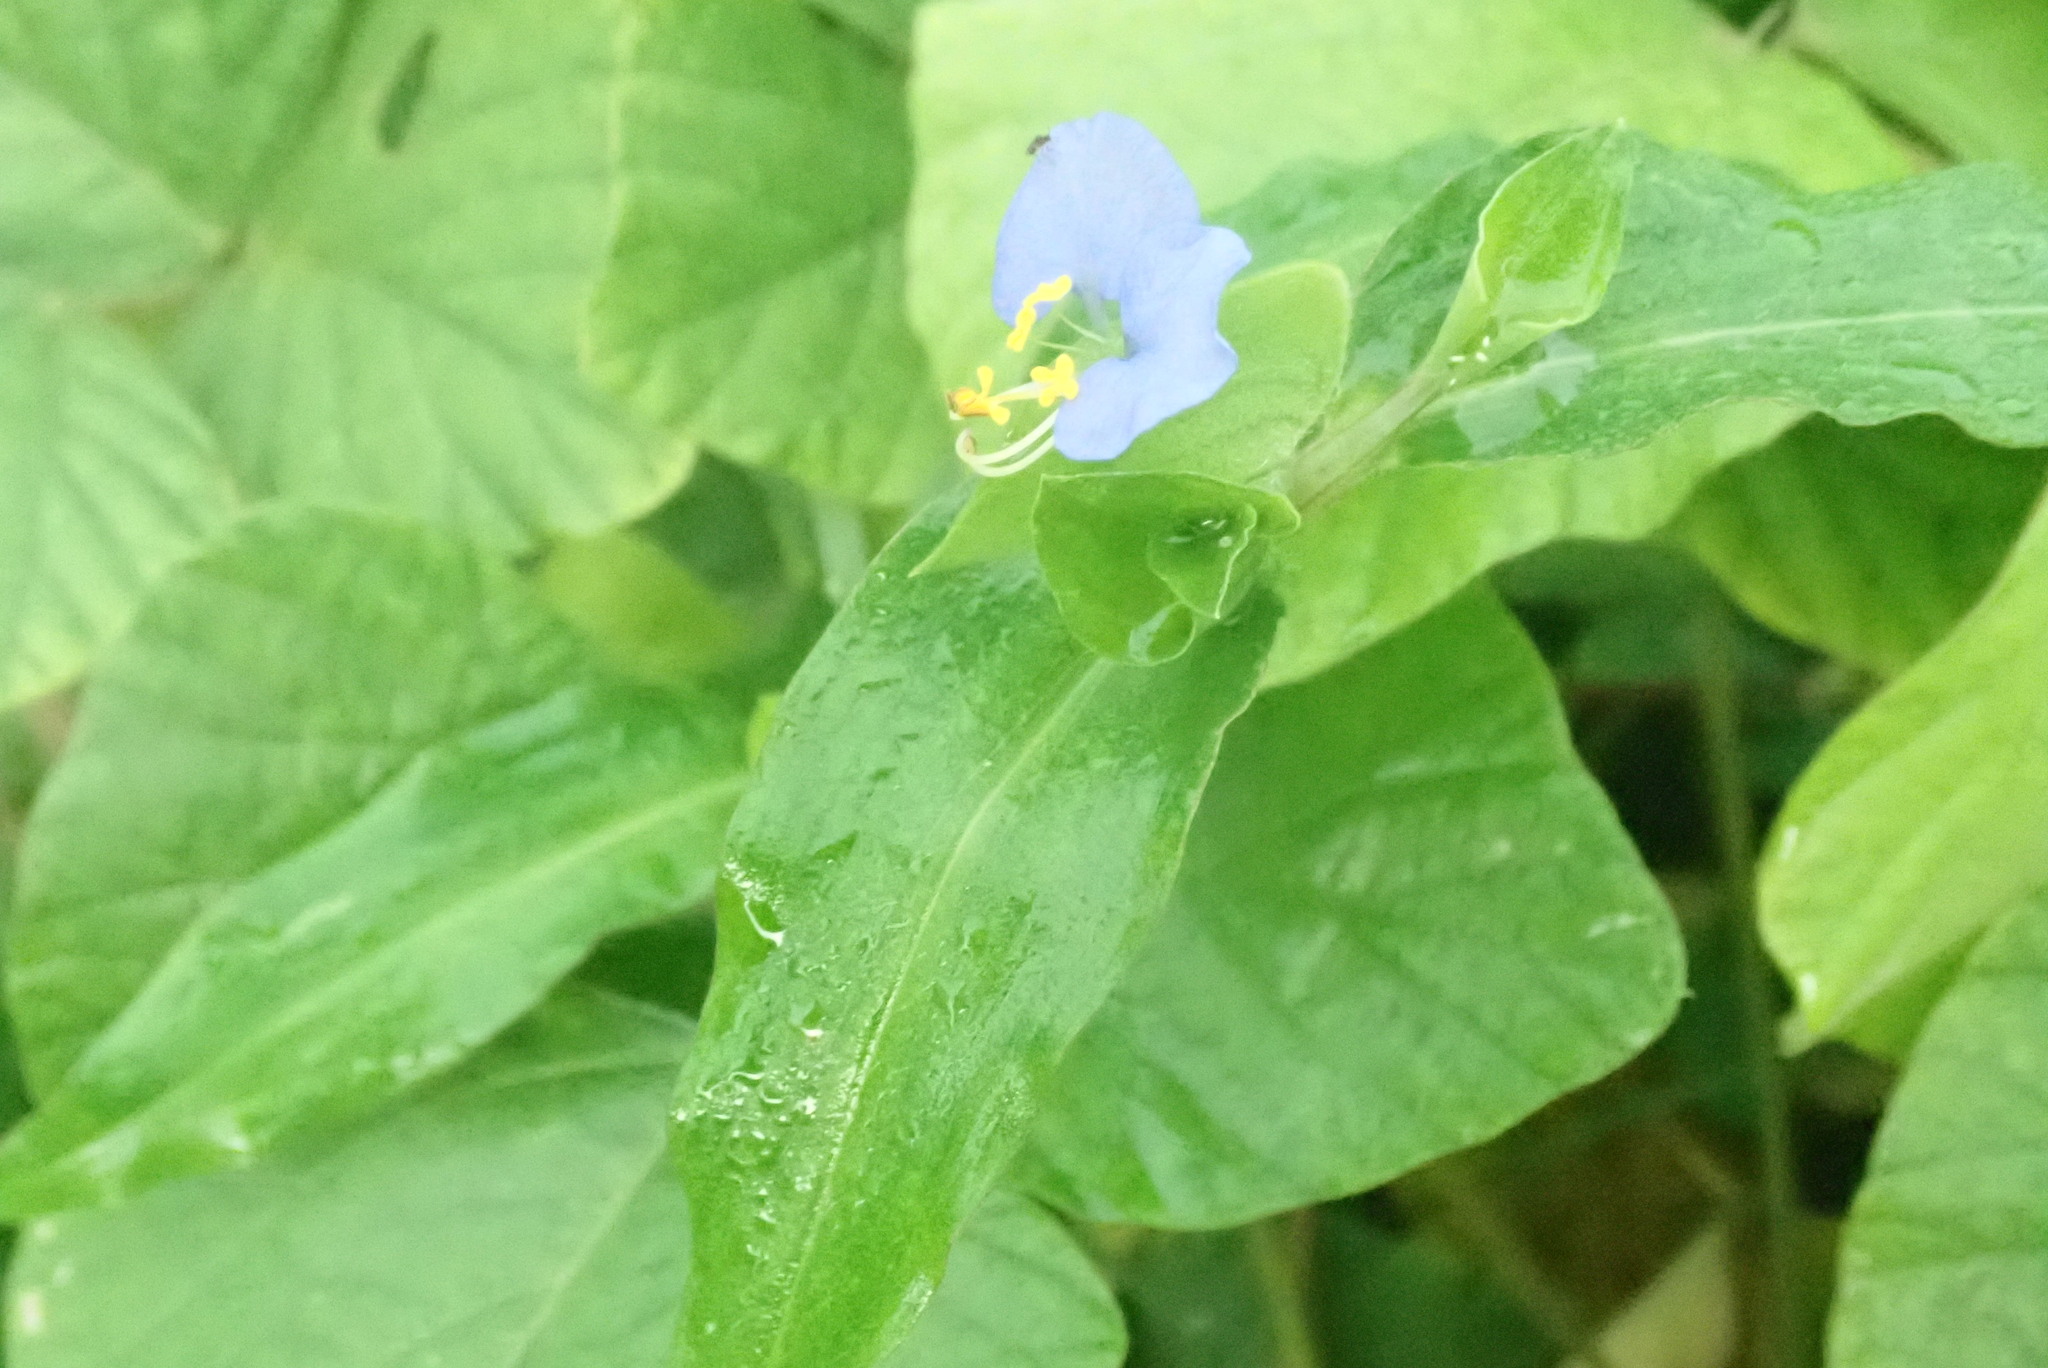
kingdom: Plantae
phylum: Tracheophyta
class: Liliopsida
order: Commelinales
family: Commelinaceae
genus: Commelina
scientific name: Commelina erecta
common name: Blousel blommetjie
